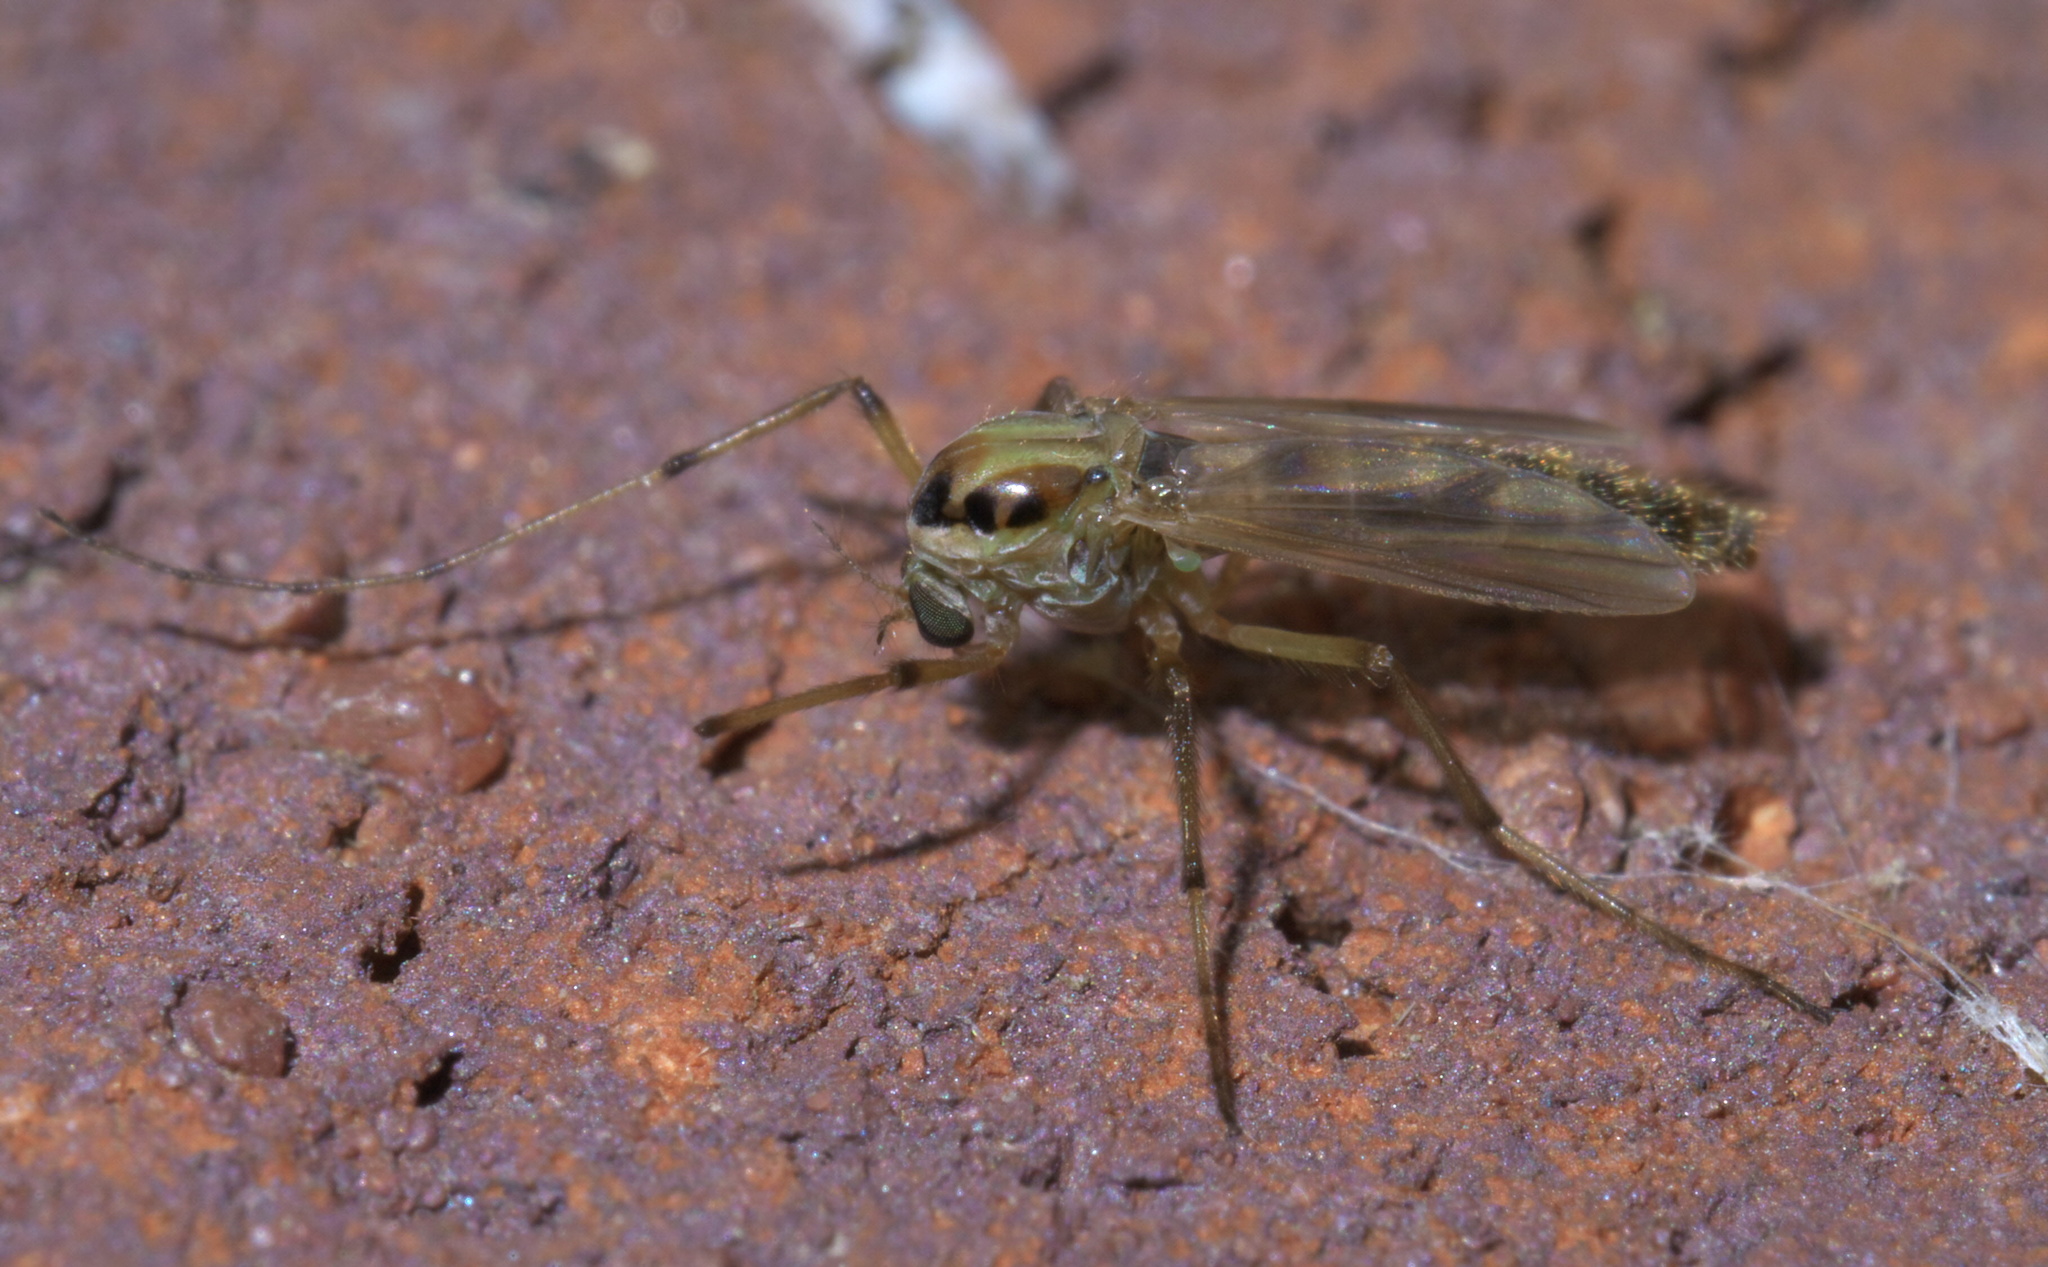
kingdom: Animalia
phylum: Arthropoda
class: Insecta
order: Diptera
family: Chironomidae
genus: Goeldichironomus
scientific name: Goeldichironomus carus
